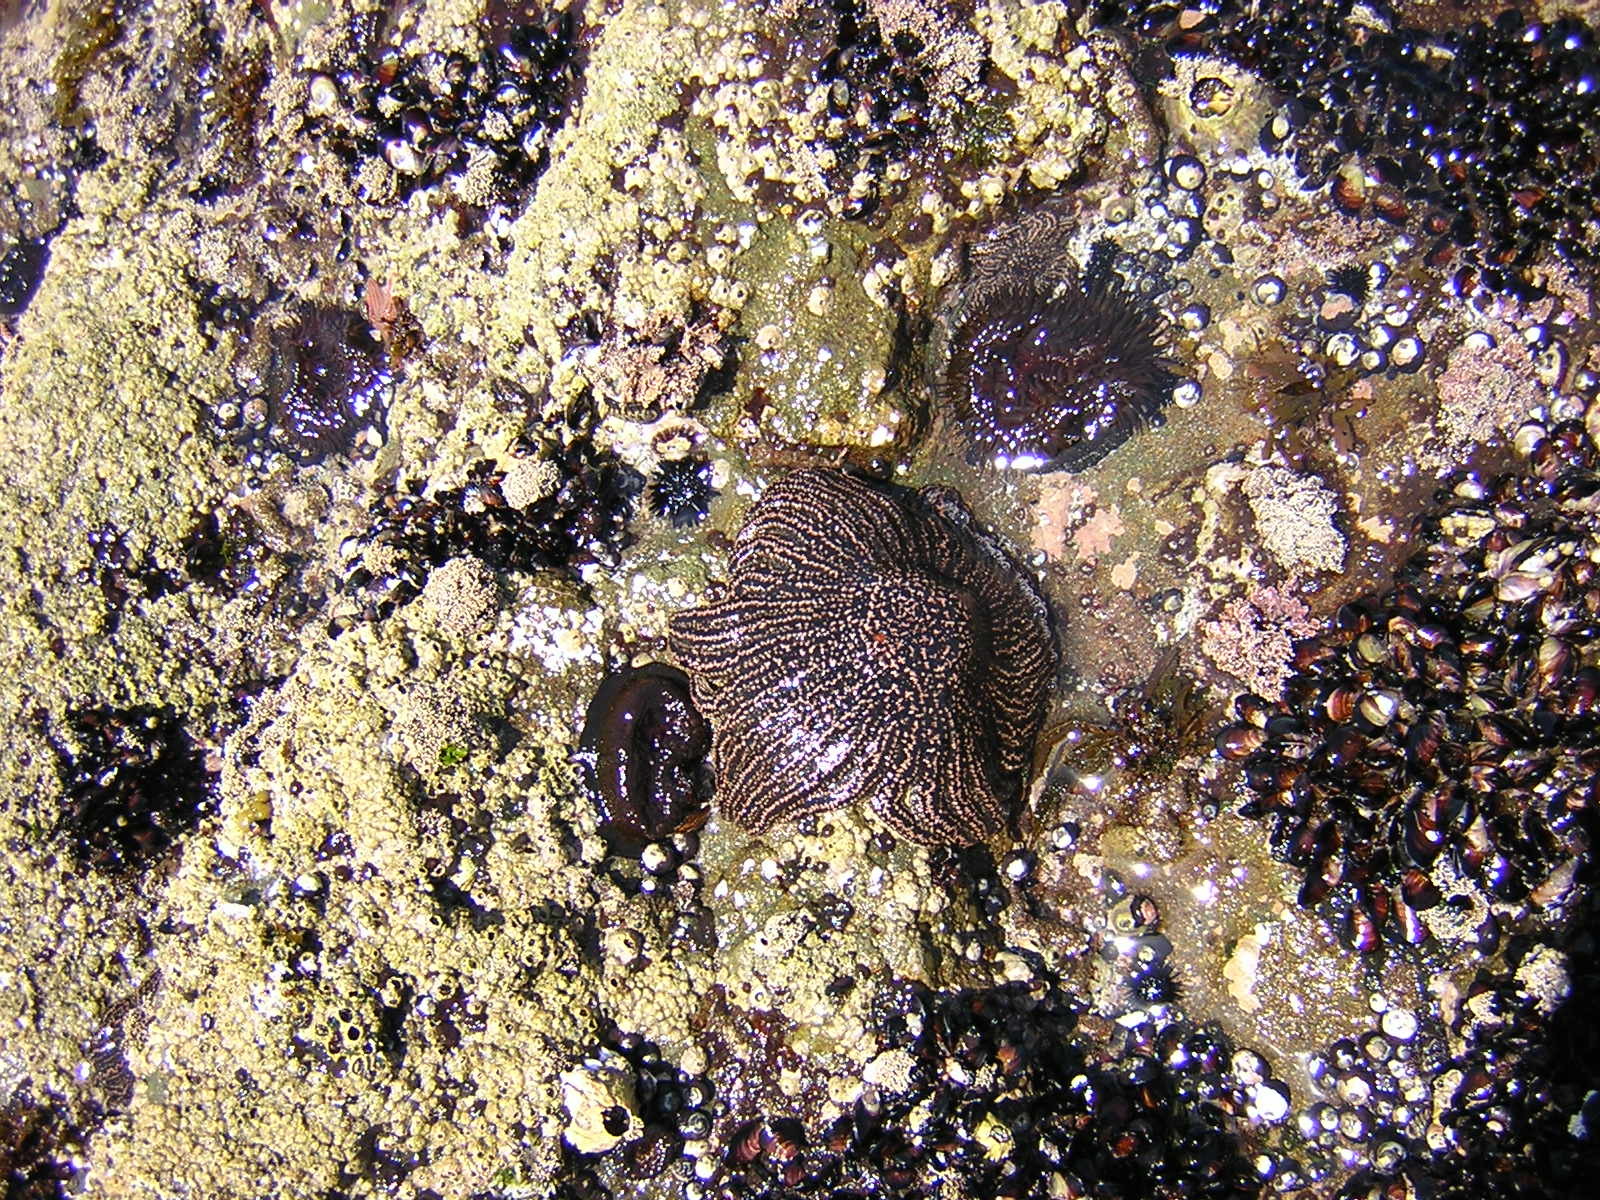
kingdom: Animalia
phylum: Echinodermata
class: Asteroidea
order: Forcipulatida
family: Heliasteridae
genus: Heliaster
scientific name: Heliaster helianthus
